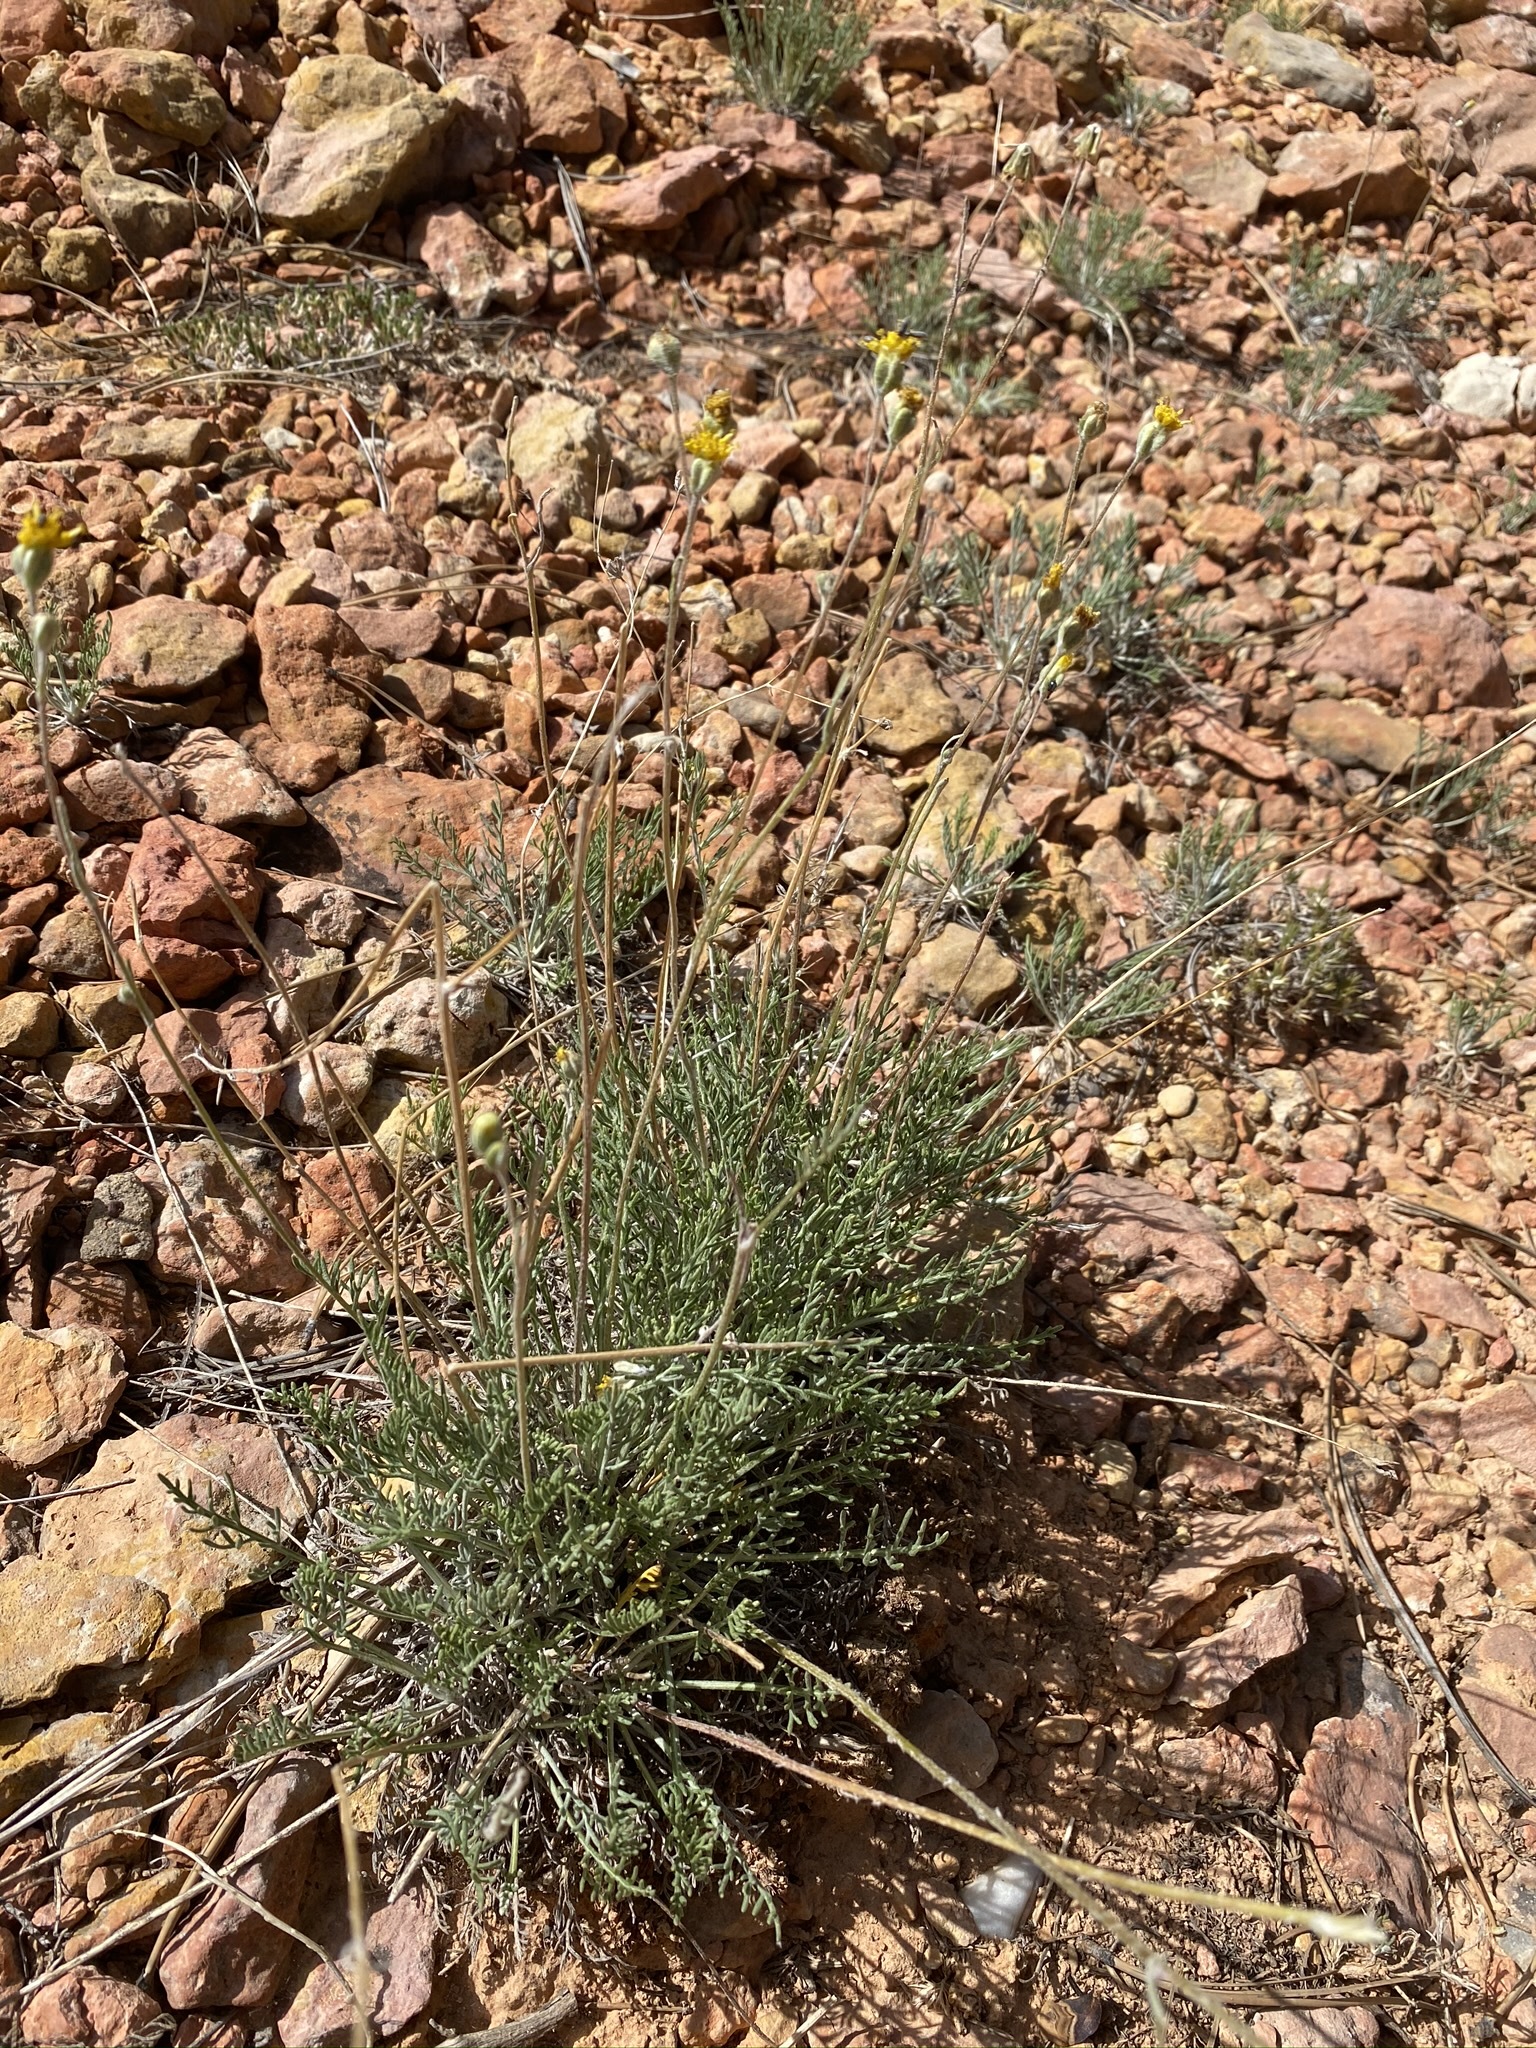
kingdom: Plantae
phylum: Tracheophyta
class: Magnoliopsida
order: Asterales
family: Asteraceae
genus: Hymenopappus
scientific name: Hymenopappus filifolius
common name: Columbia cutleaf
